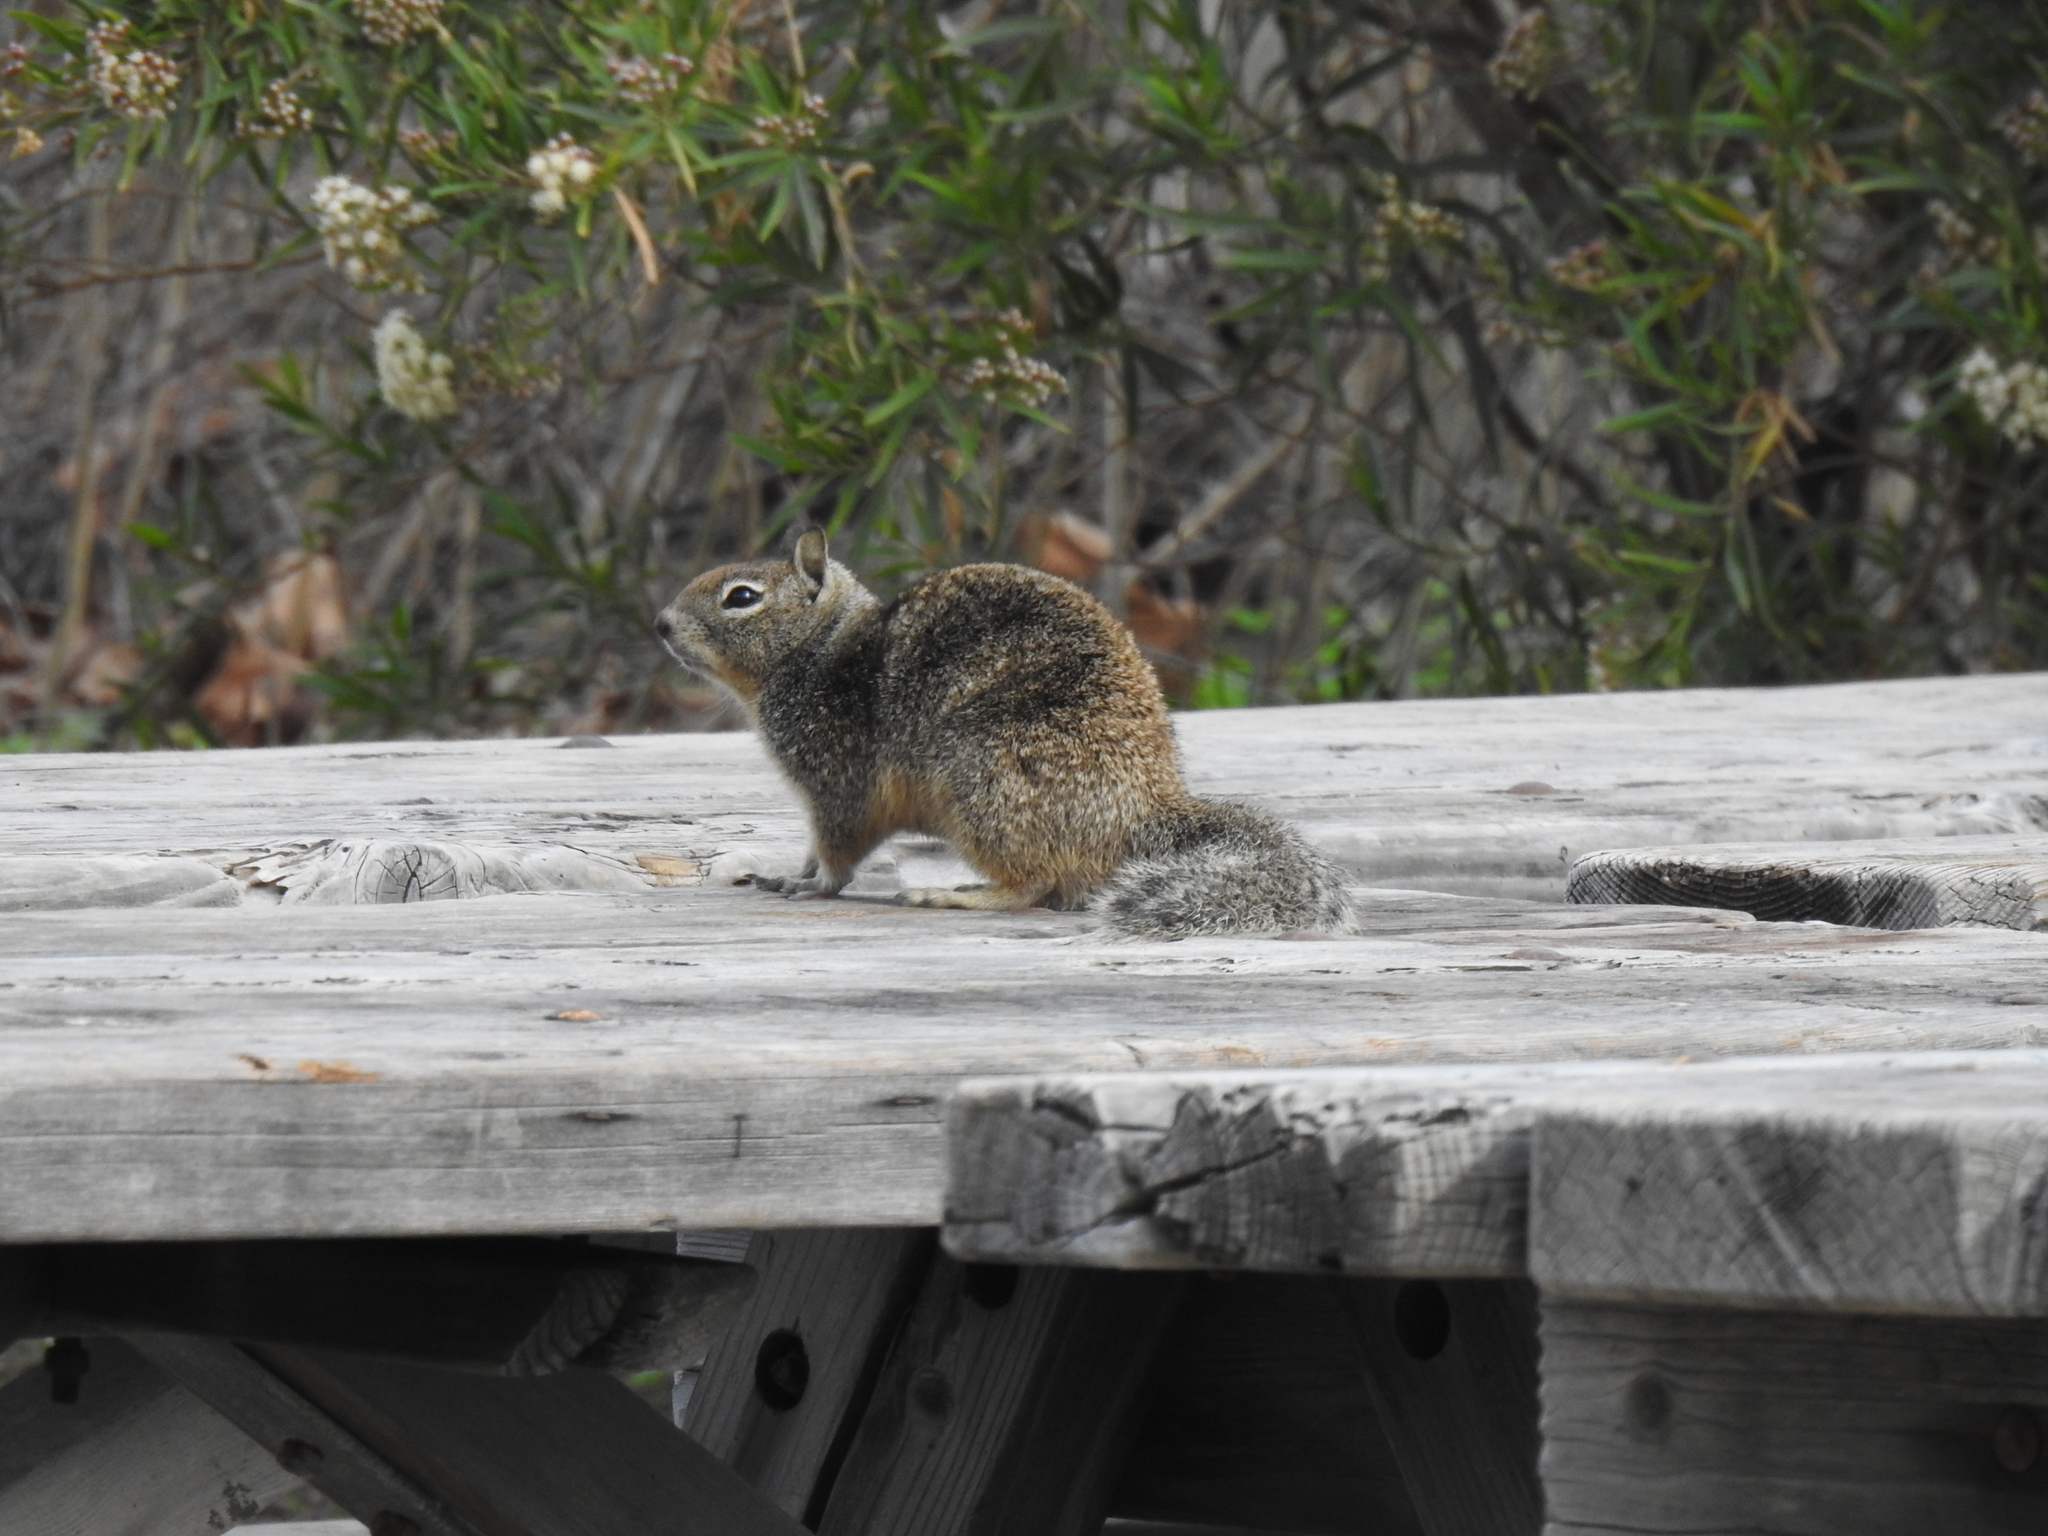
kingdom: Animalia
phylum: Chordata
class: Mammalia
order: Rodentia
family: Sciuridae
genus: Otospermophilus
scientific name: Otospermophilus beecheyi
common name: California ground squirrel
